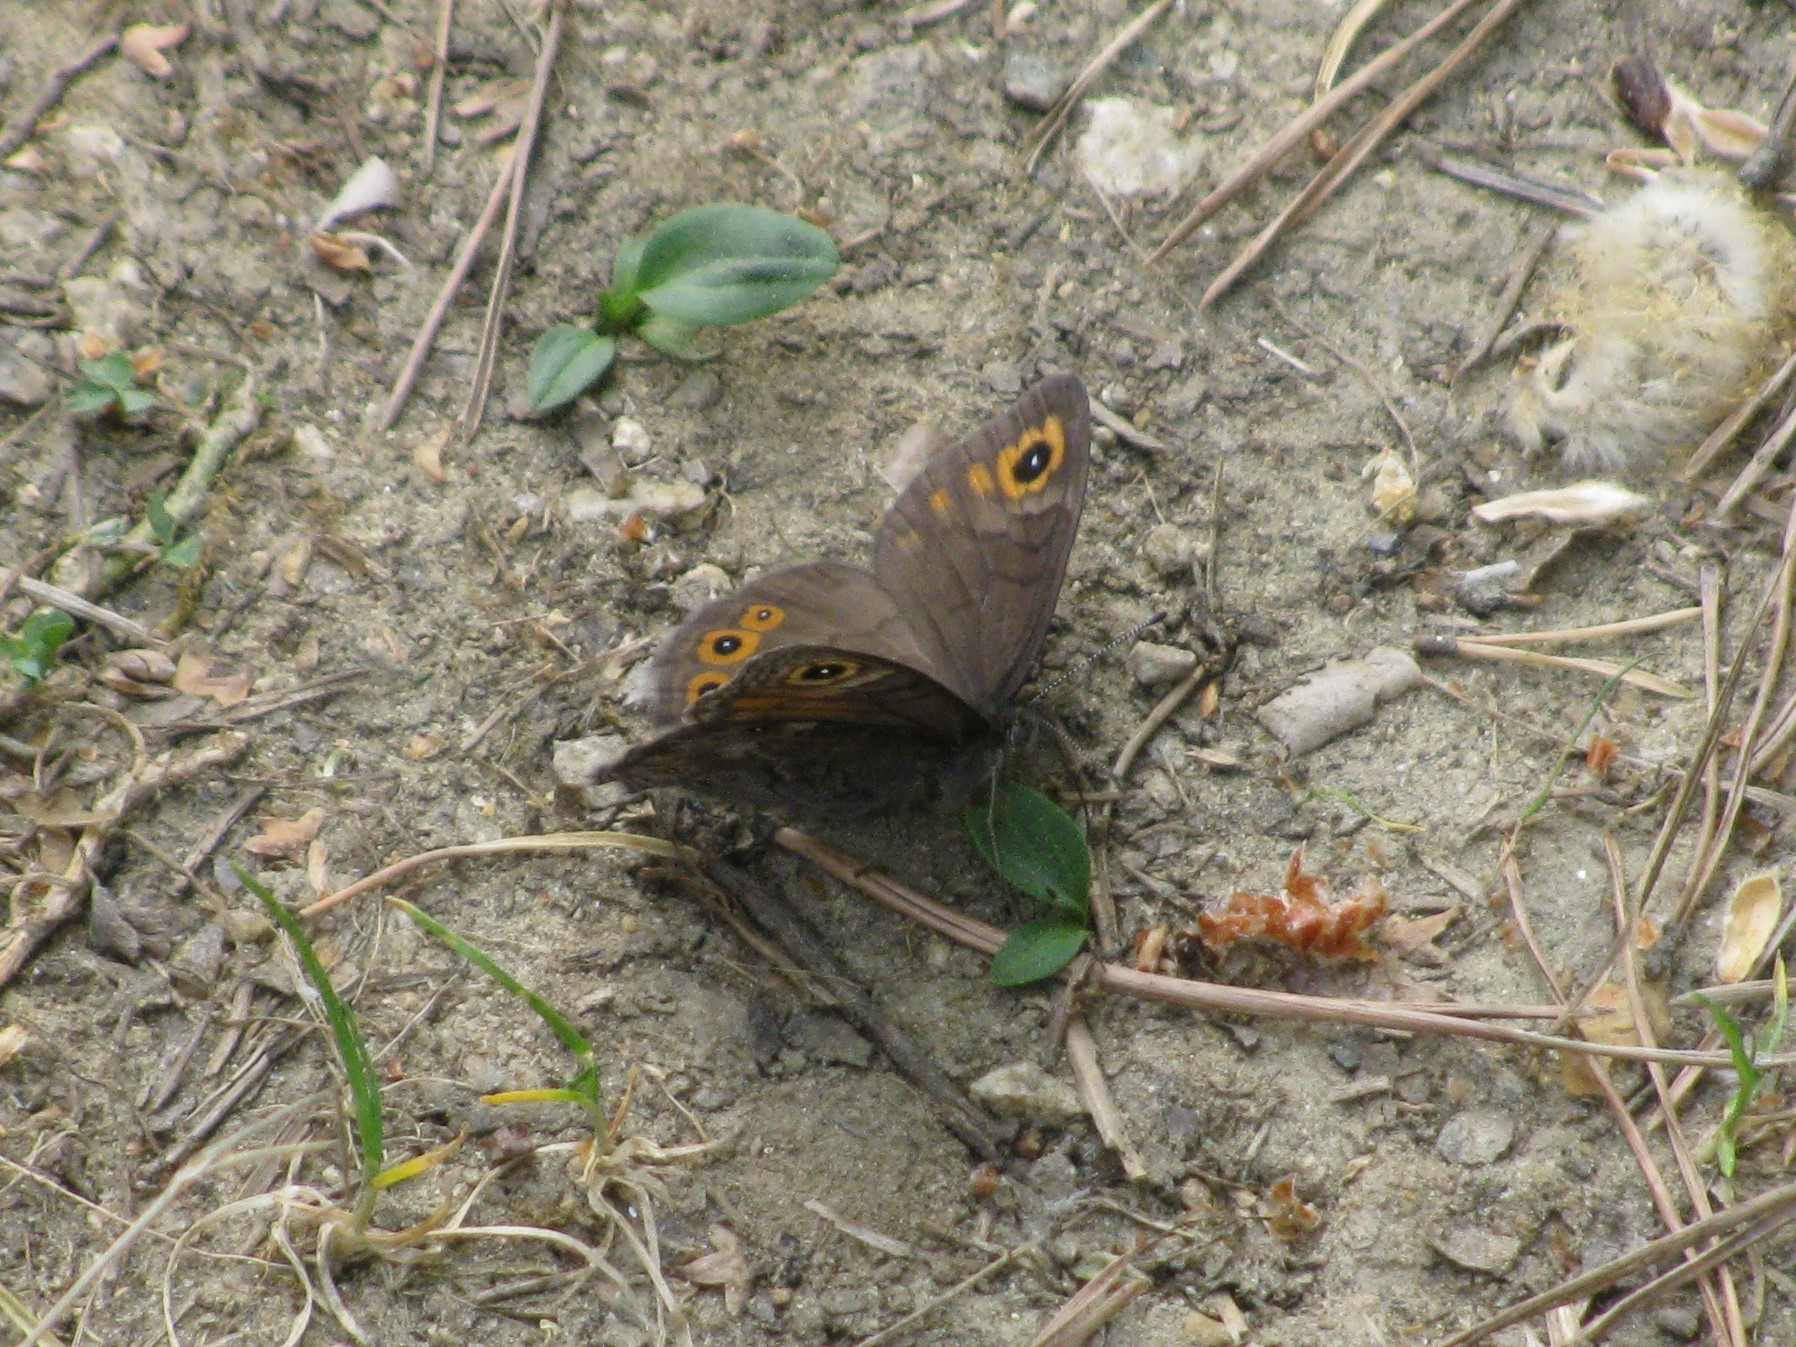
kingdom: Animalia
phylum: Arthropoda
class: Insecta
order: Lepidoptera
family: Nymphalidae
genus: Pararge
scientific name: Pararge petropolitana
